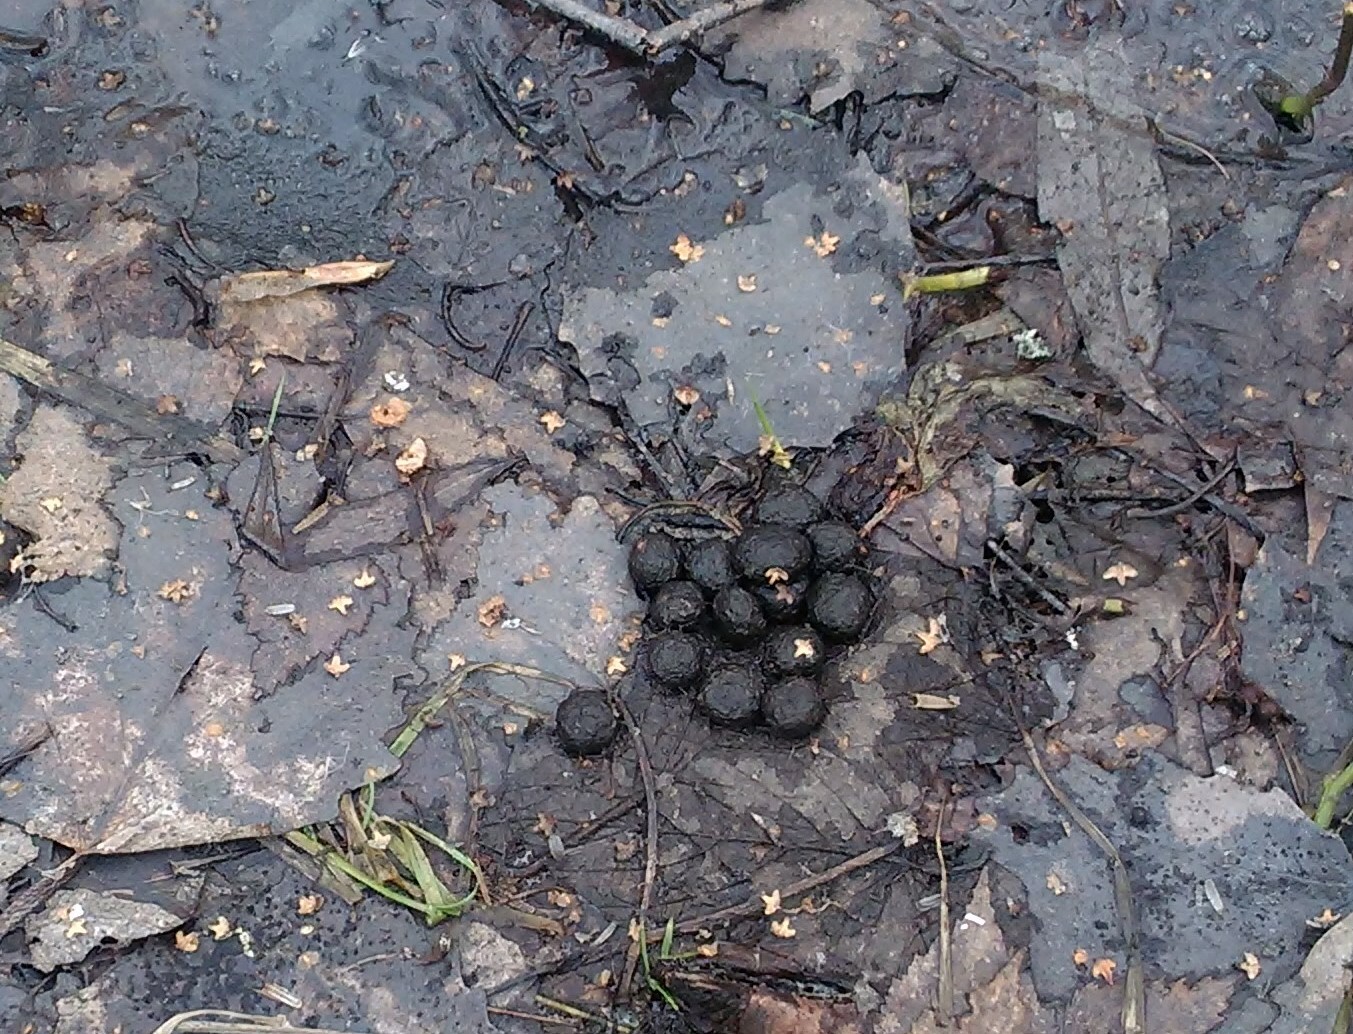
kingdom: Animalia
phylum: Chordata
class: Mammalia
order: Lagomorpha
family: Leporidae
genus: Lepus
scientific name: Lepus europaeus
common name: European hare
